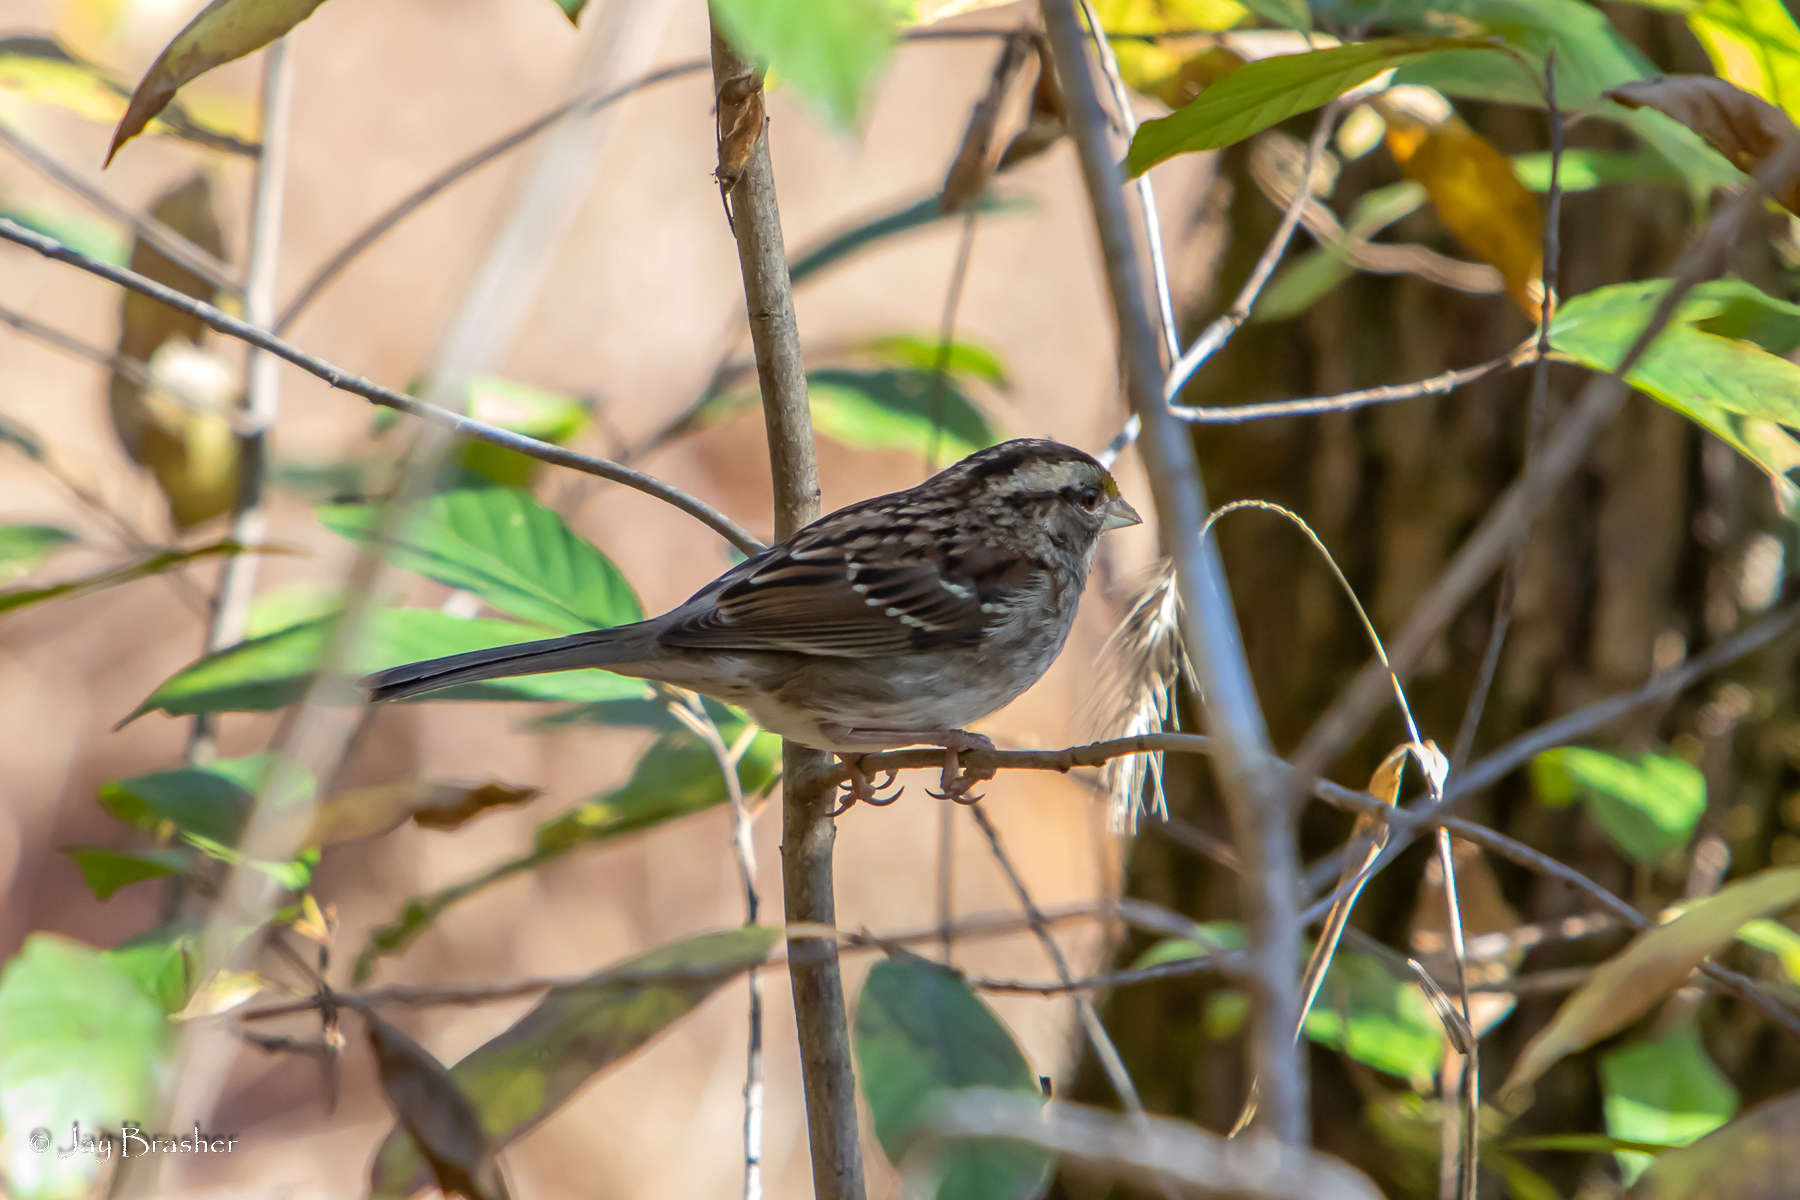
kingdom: Animalia
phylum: Chordata
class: Aves
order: Passeriformes
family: Passerellidae
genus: Zonotrichia
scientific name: Zonotrichia albicollis
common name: White-throated sparrow
